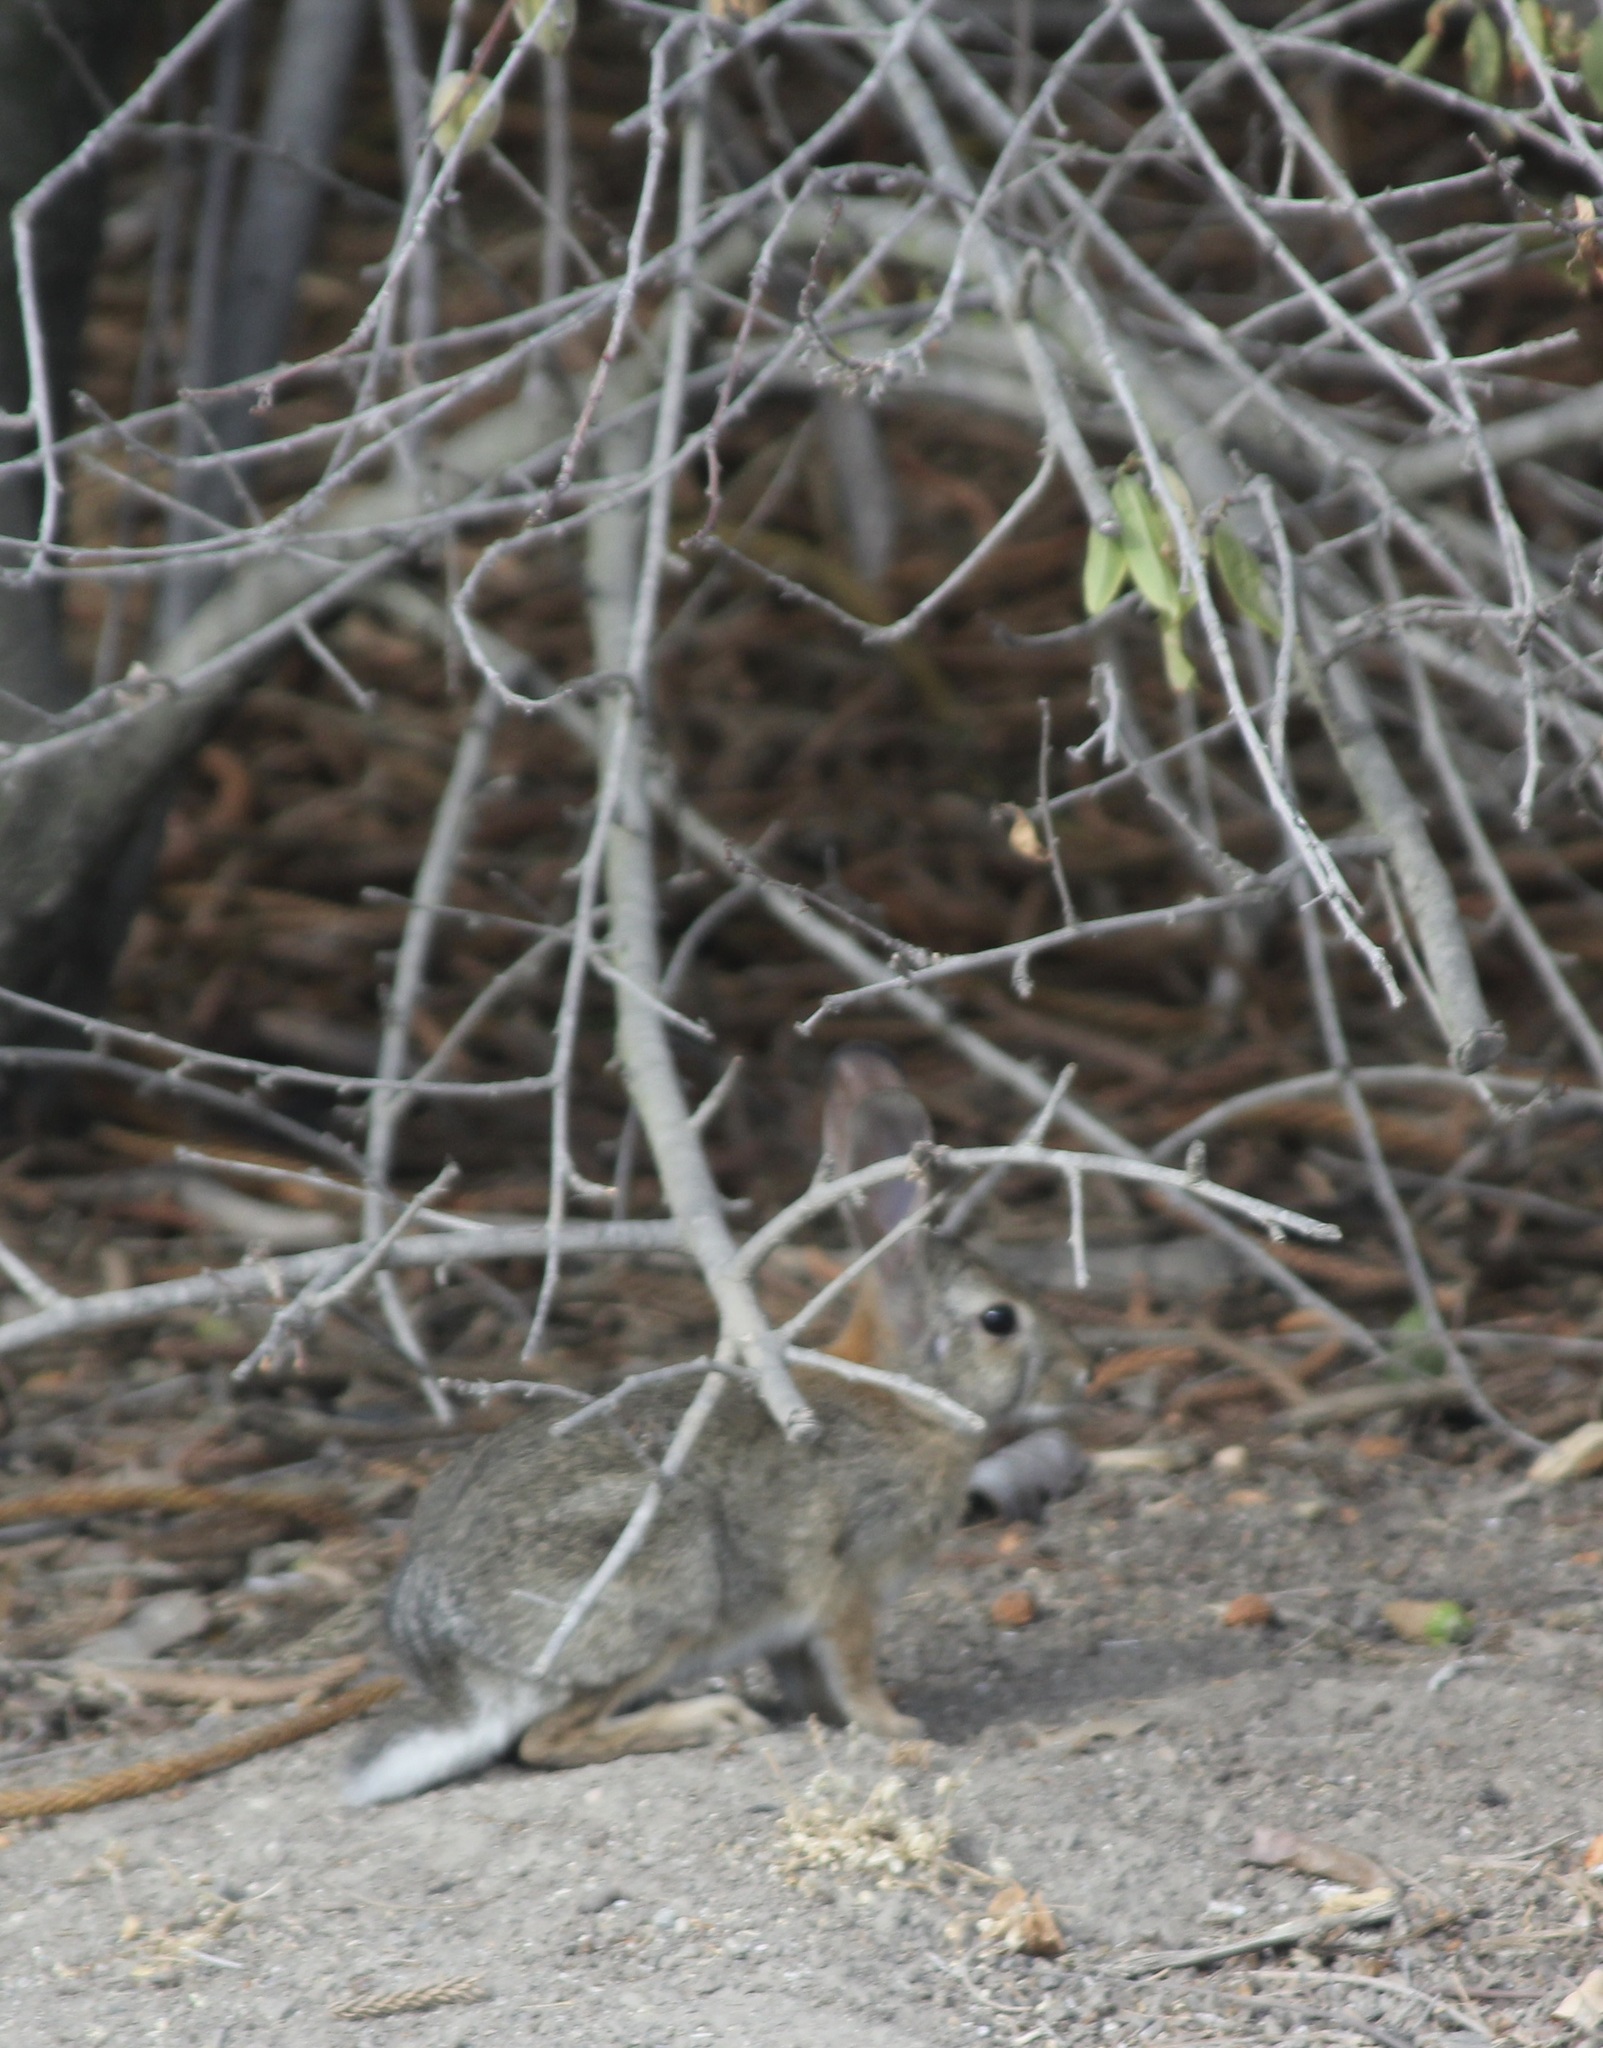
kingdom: Animalia
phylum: Chordata
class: Mammalia
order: Lagomorpha
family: Leporidae
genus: Sylvilagus
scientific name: Sylvilagus audubonii
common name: Desert cottontail
